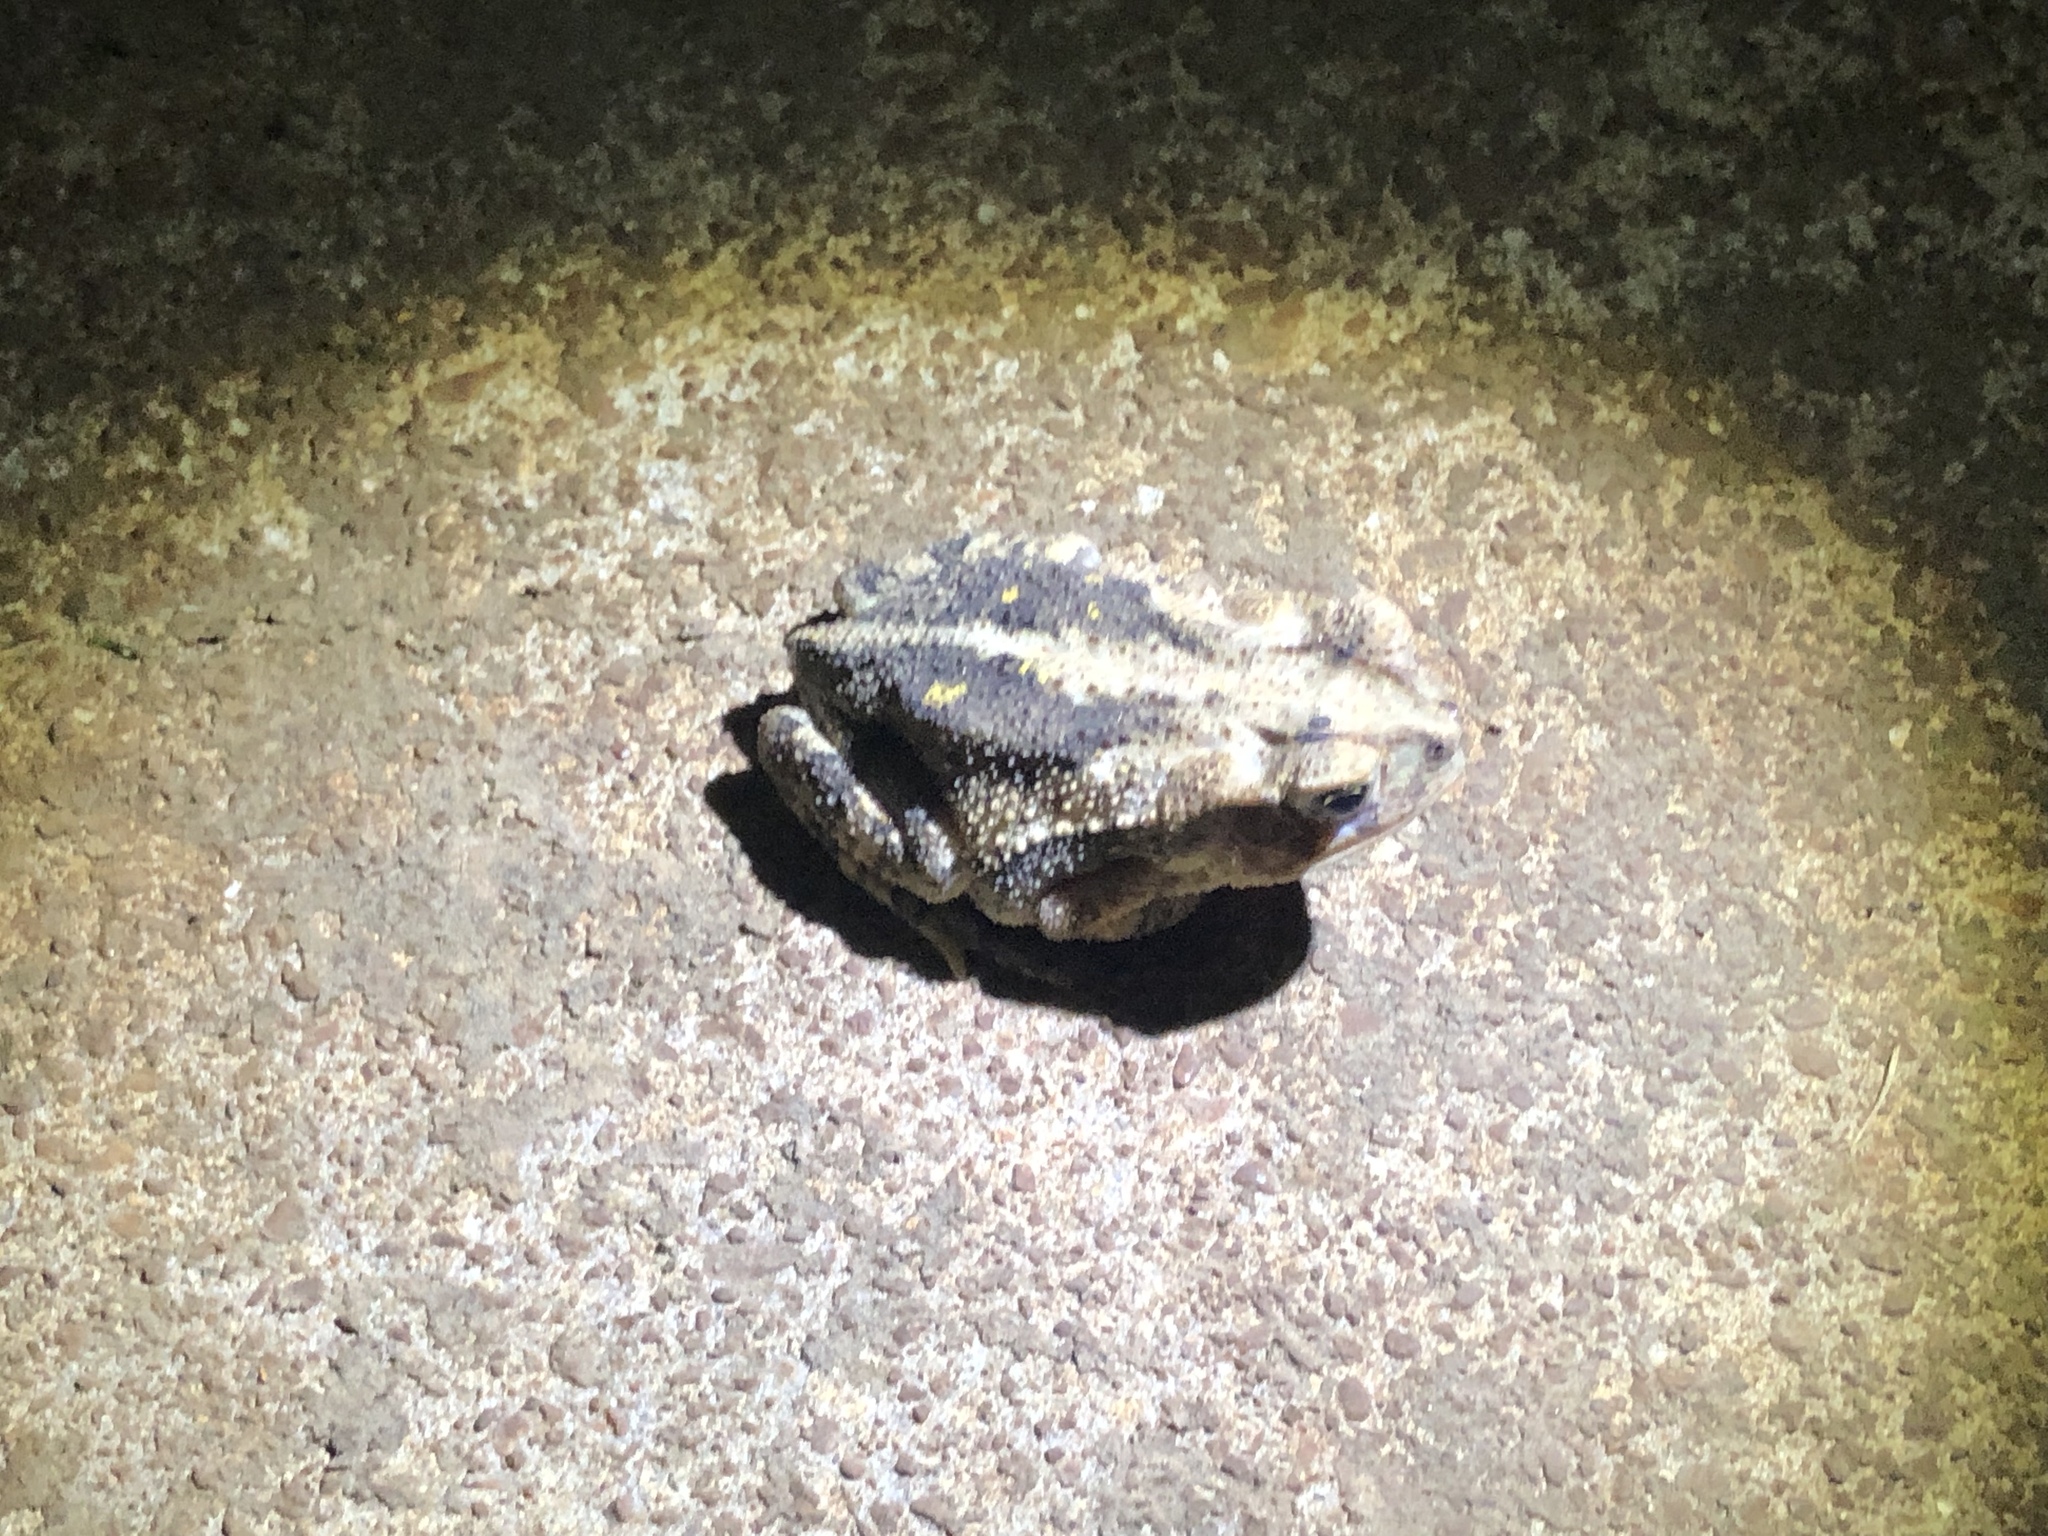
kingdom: Animalia
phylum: Chordata
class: Amphibia
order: Anura
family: Bufonidae
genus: Incilius
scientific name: Incilius nebulifer
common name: Gulf coast toad
